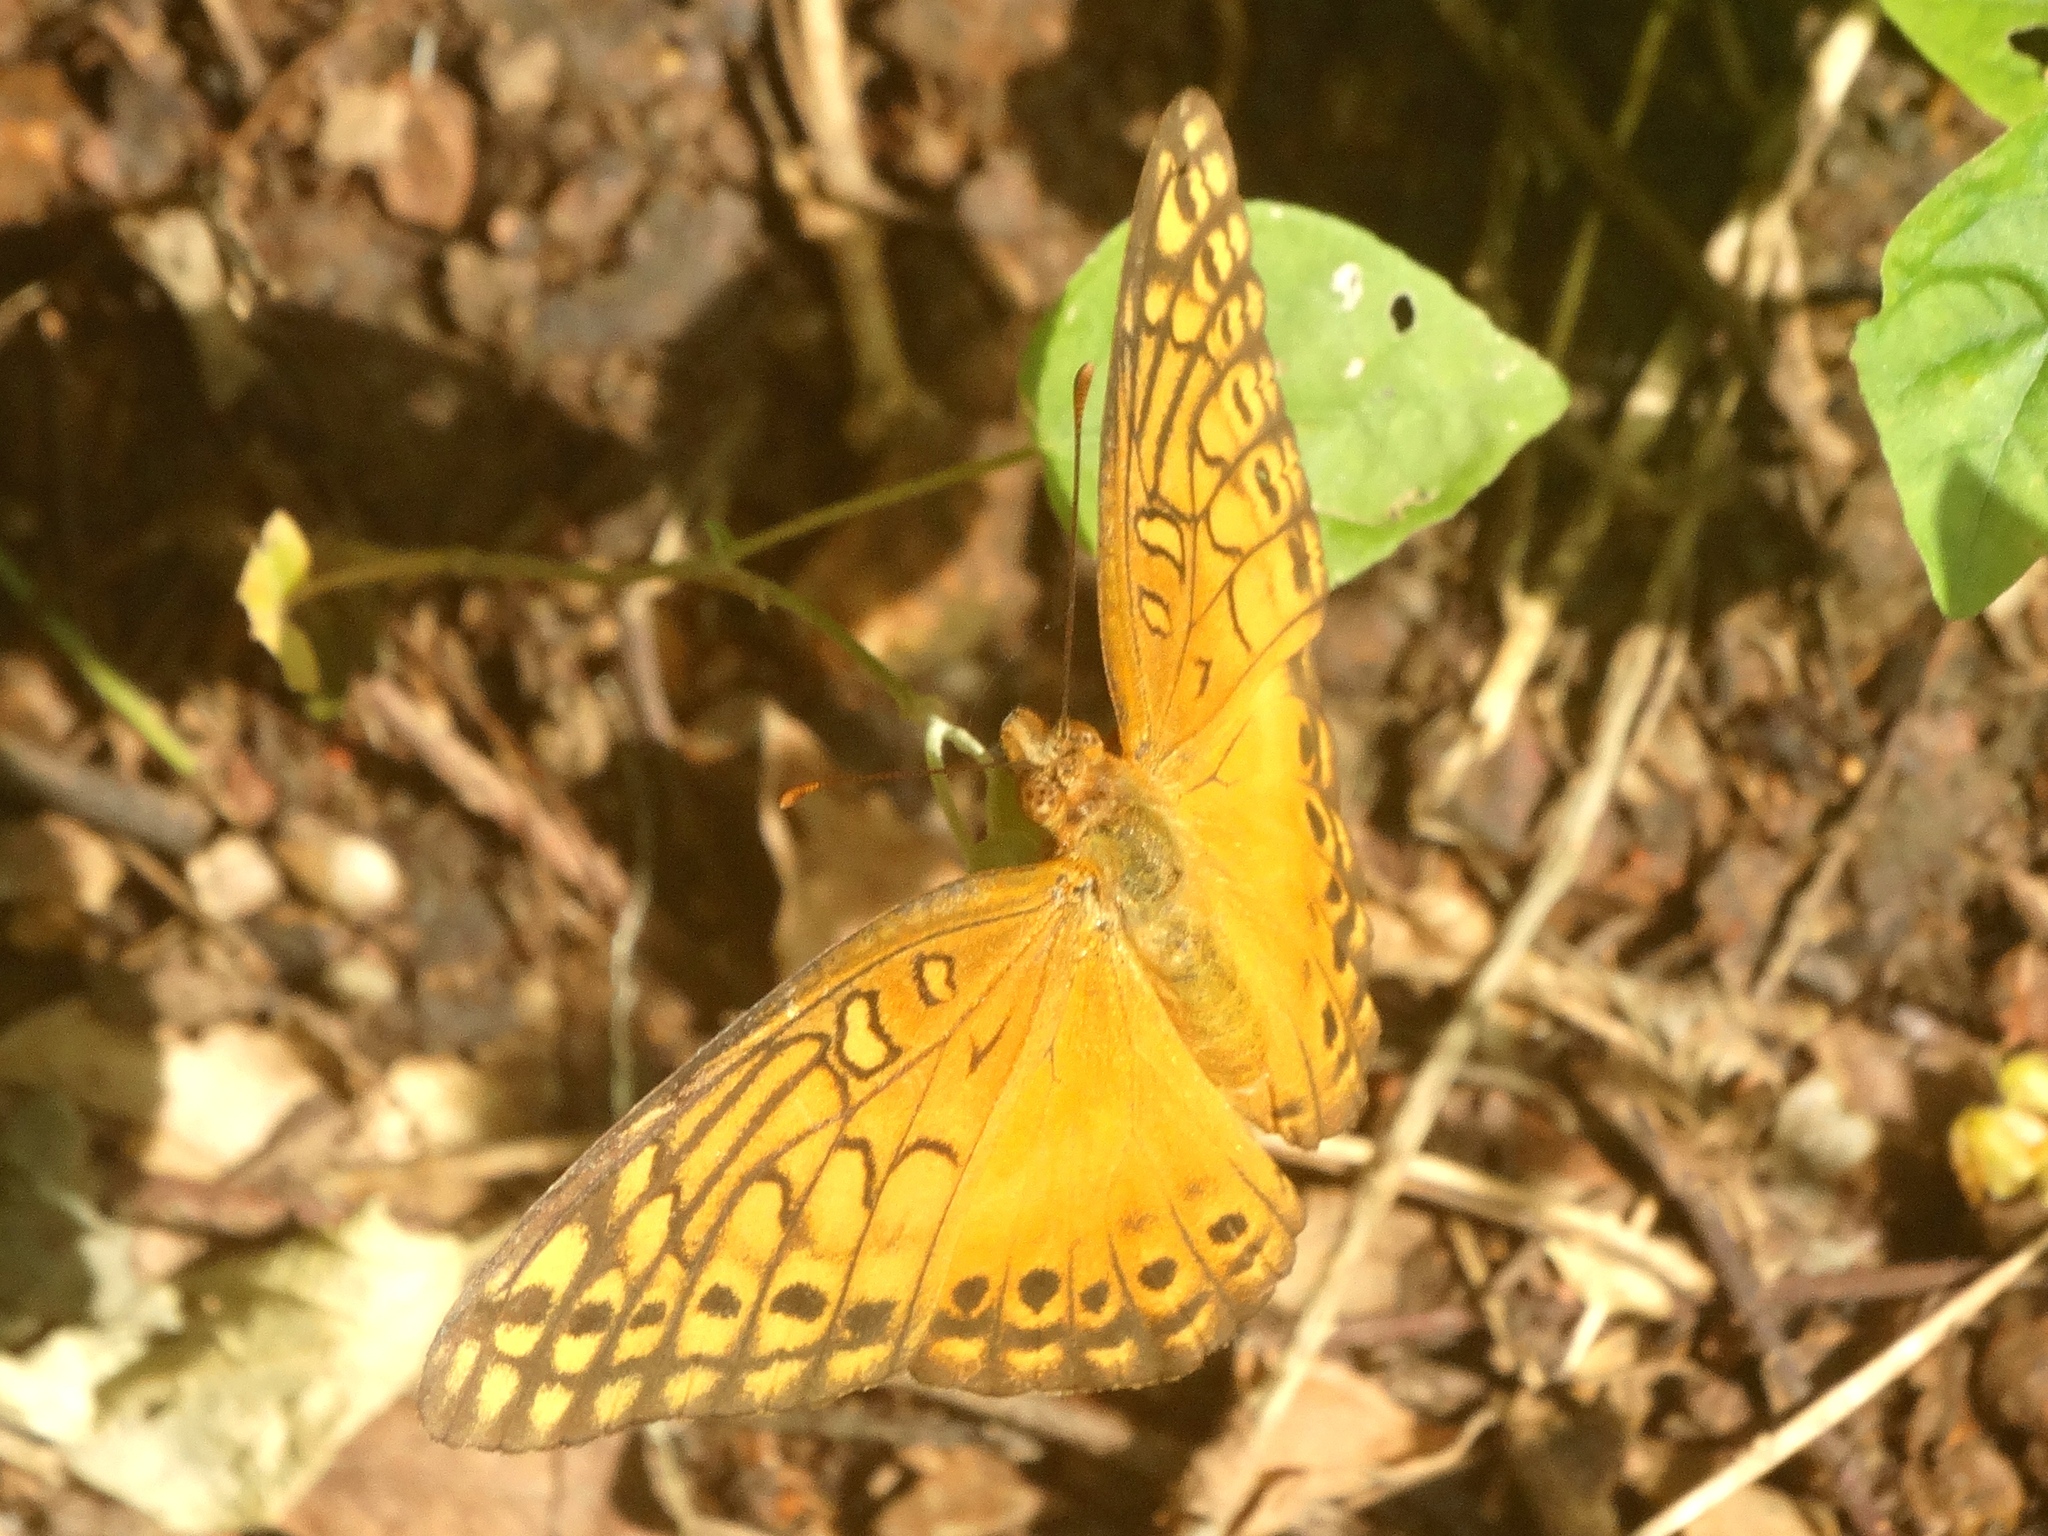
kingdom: Animalia
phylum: Arthropoda
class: Insecta
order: Lepidoptera
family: Nymphalidae
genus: Euptoieta
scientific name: Euptoieta hegesia
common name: Mexican fritillary
